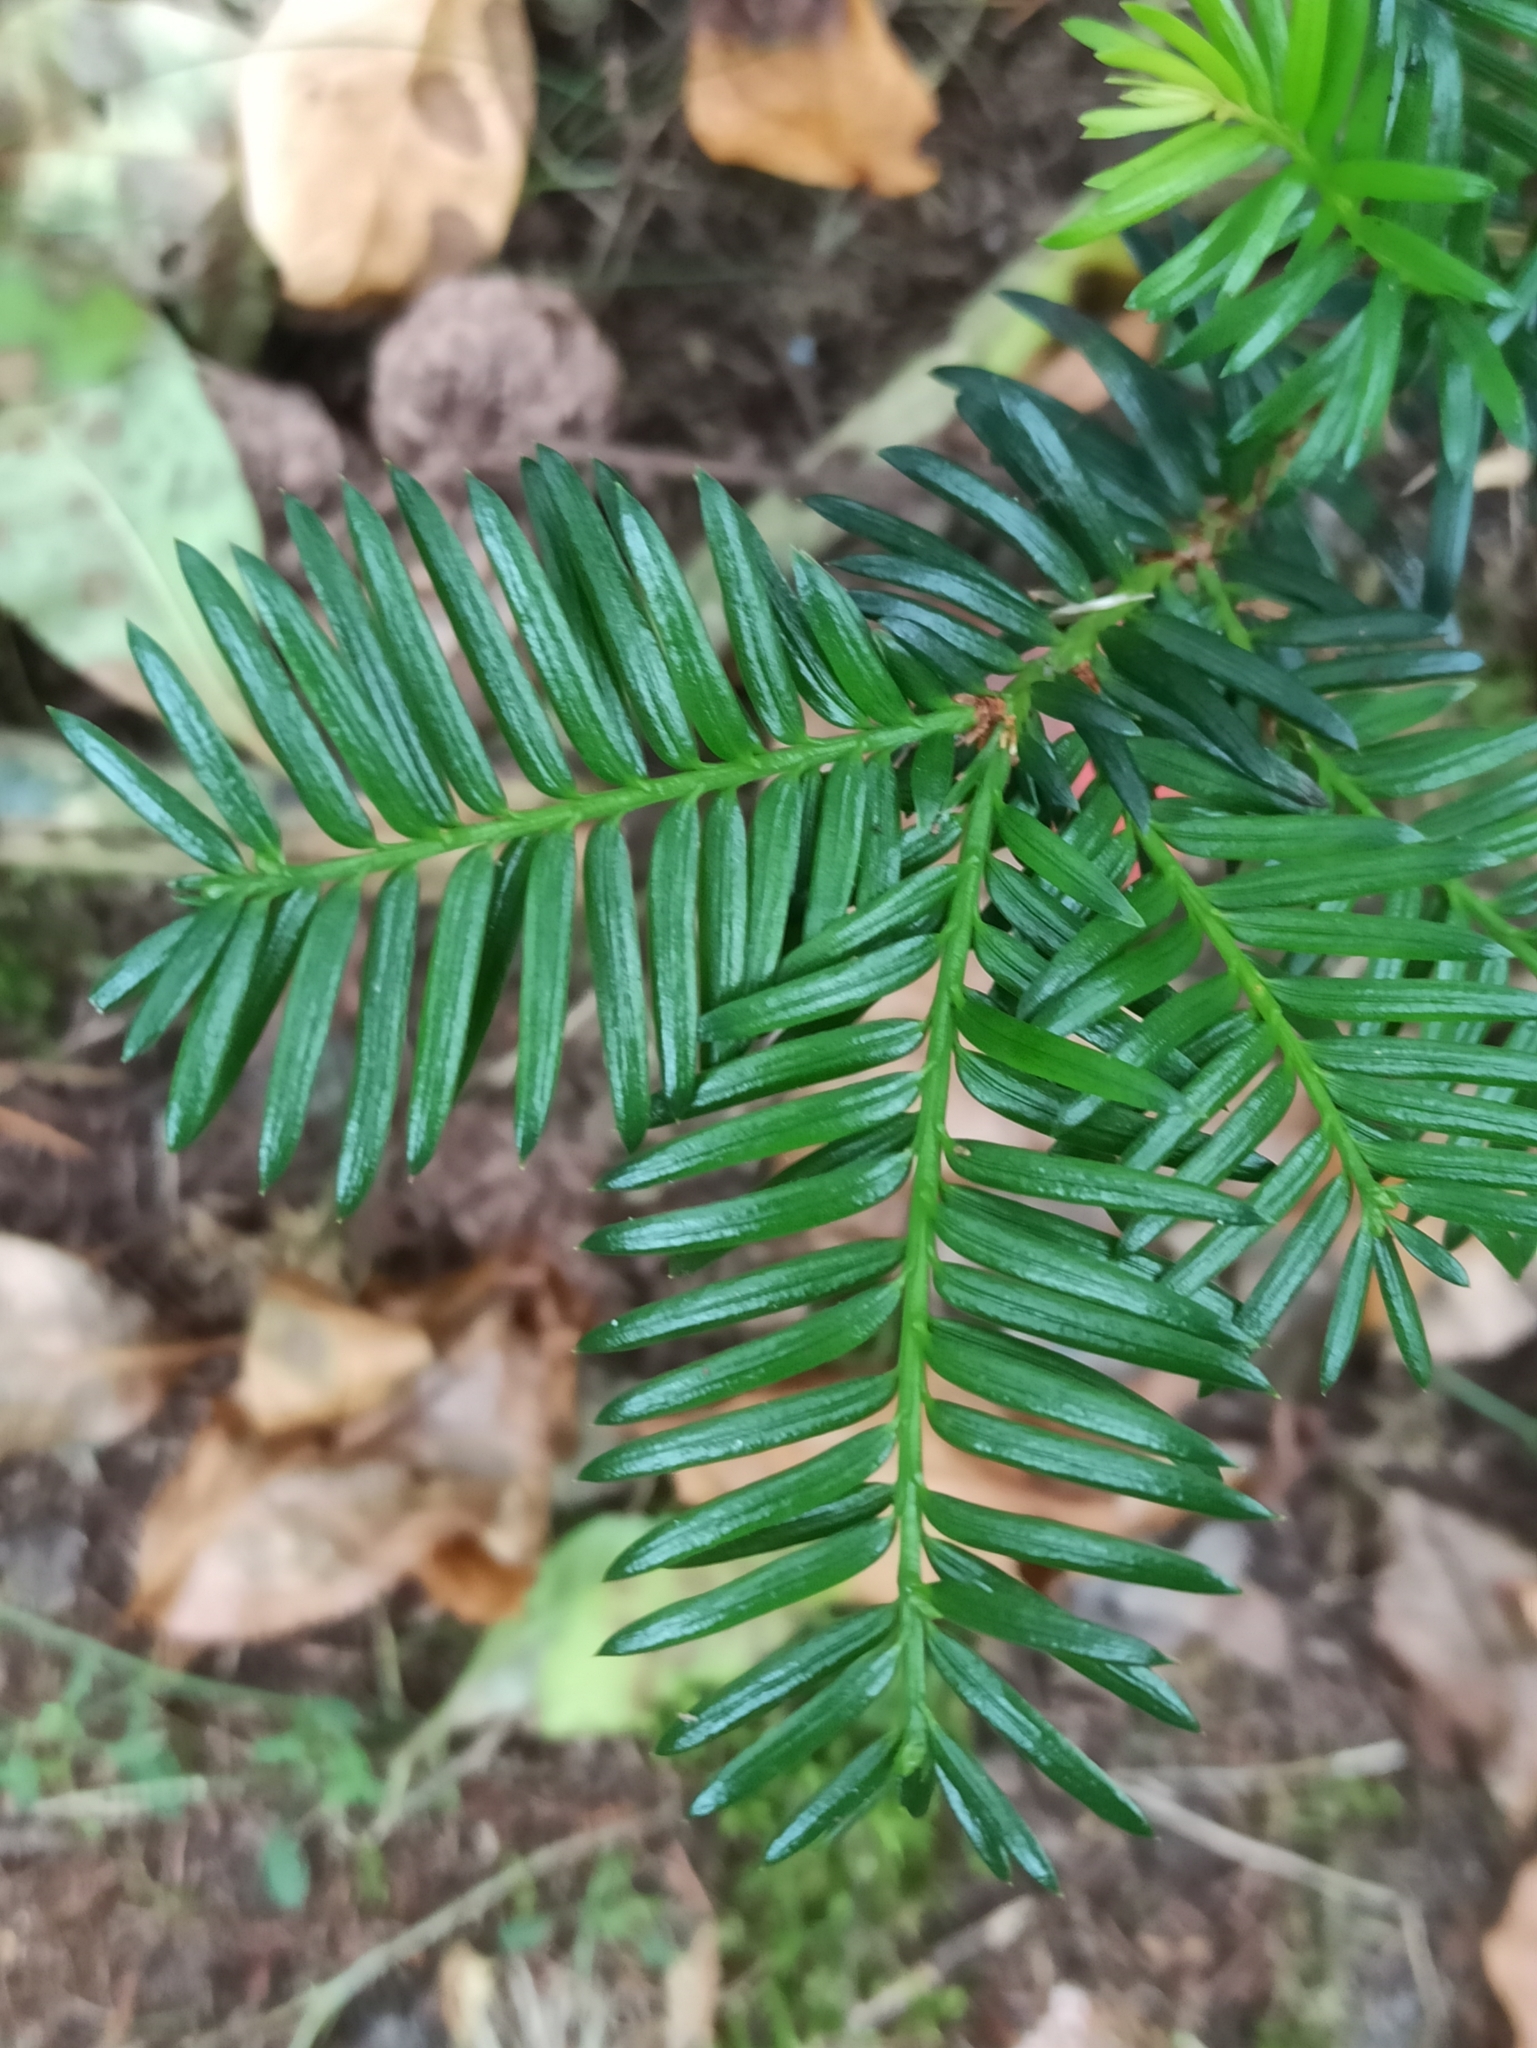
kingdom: Plantae
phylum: Tracheophyta
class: Pinopsida
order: Pinales
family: Taxaceae
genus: Taxus
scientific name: Taxus baccata
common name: Yew
